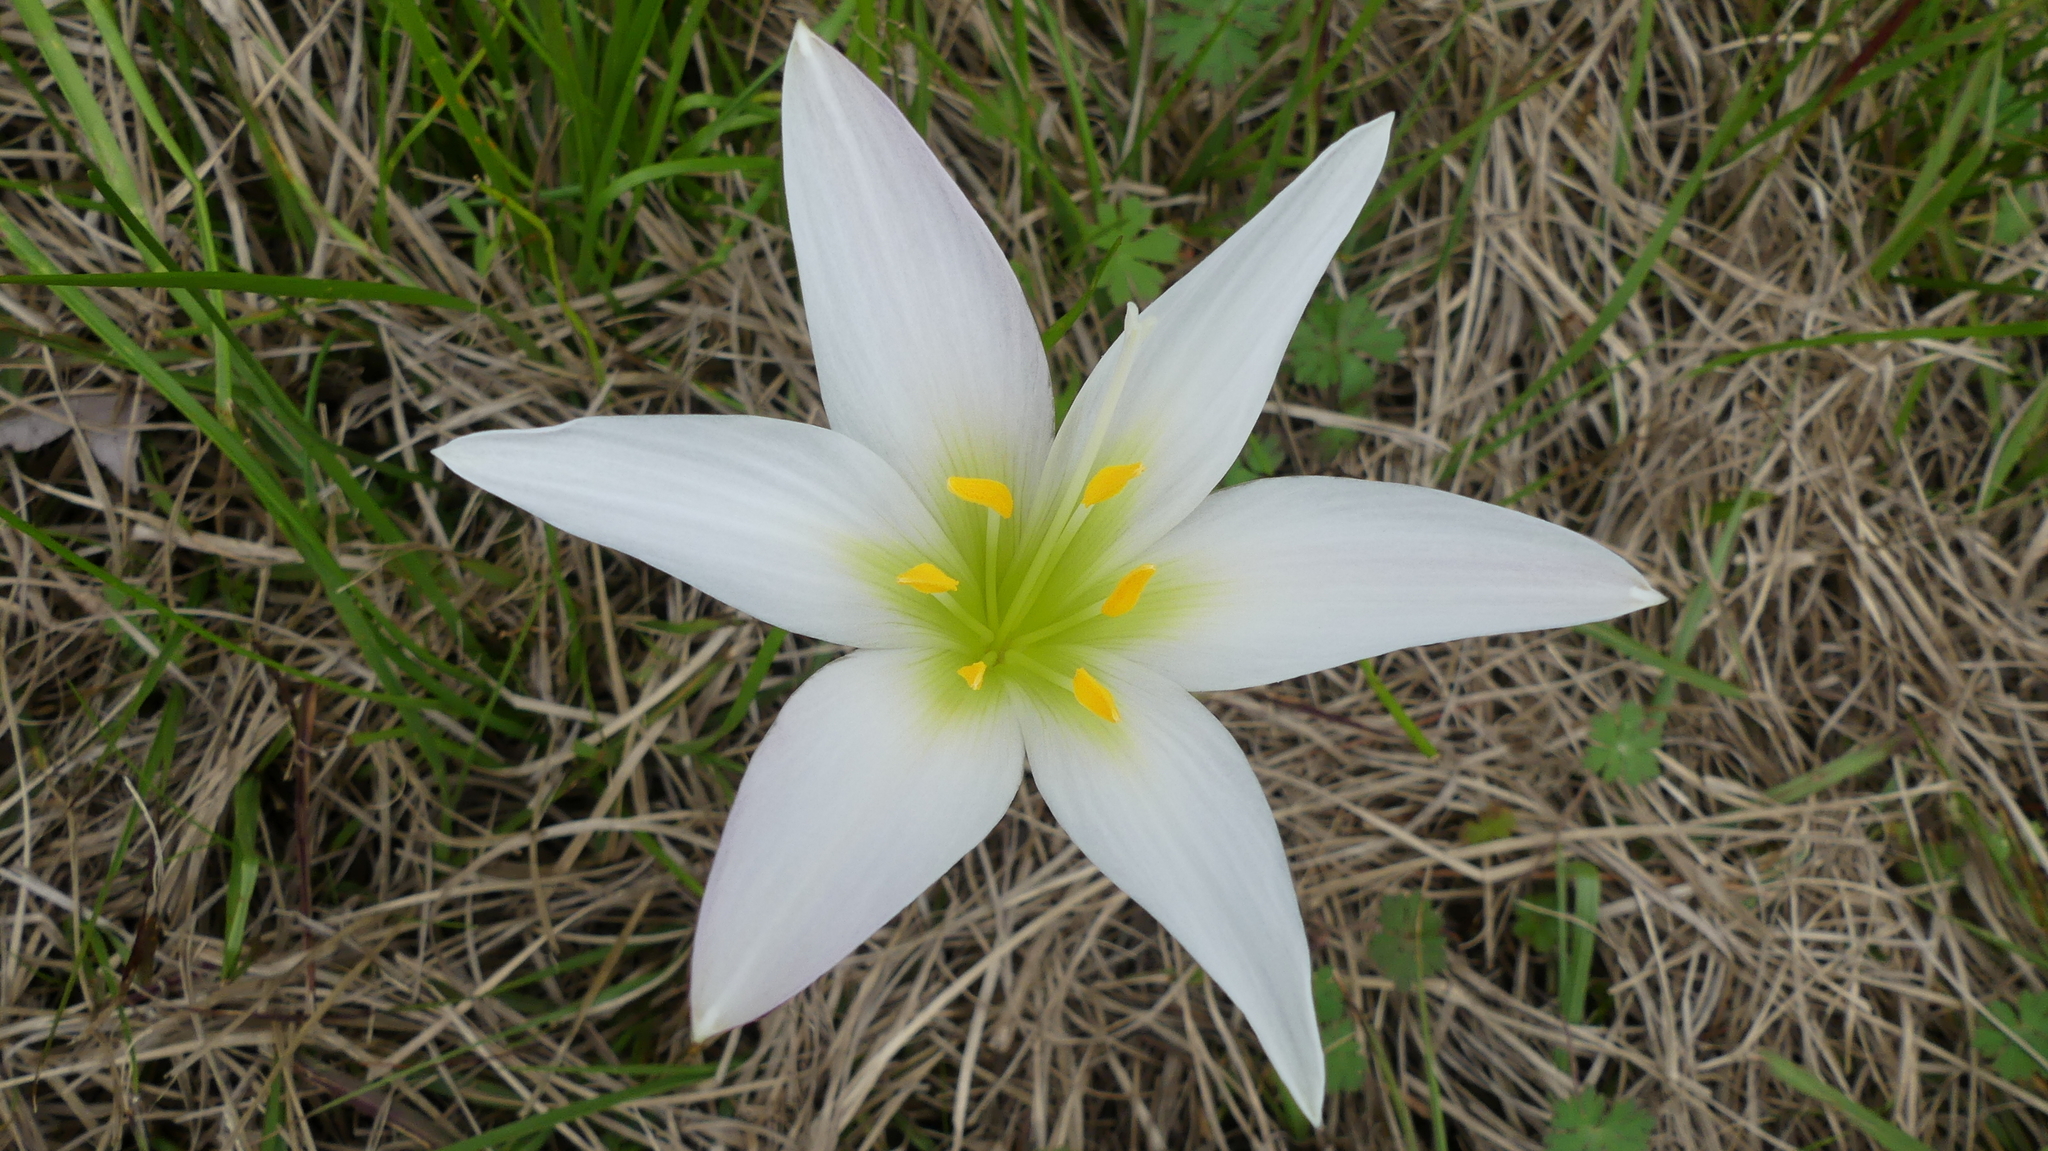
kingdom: Plantae
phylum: Tracheophyta
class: Liliopsida
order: Asparagales
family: Amaryllidaceae
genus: Zephyranthes
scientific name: Zephyranthes atamasco
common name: Atamasco lily
